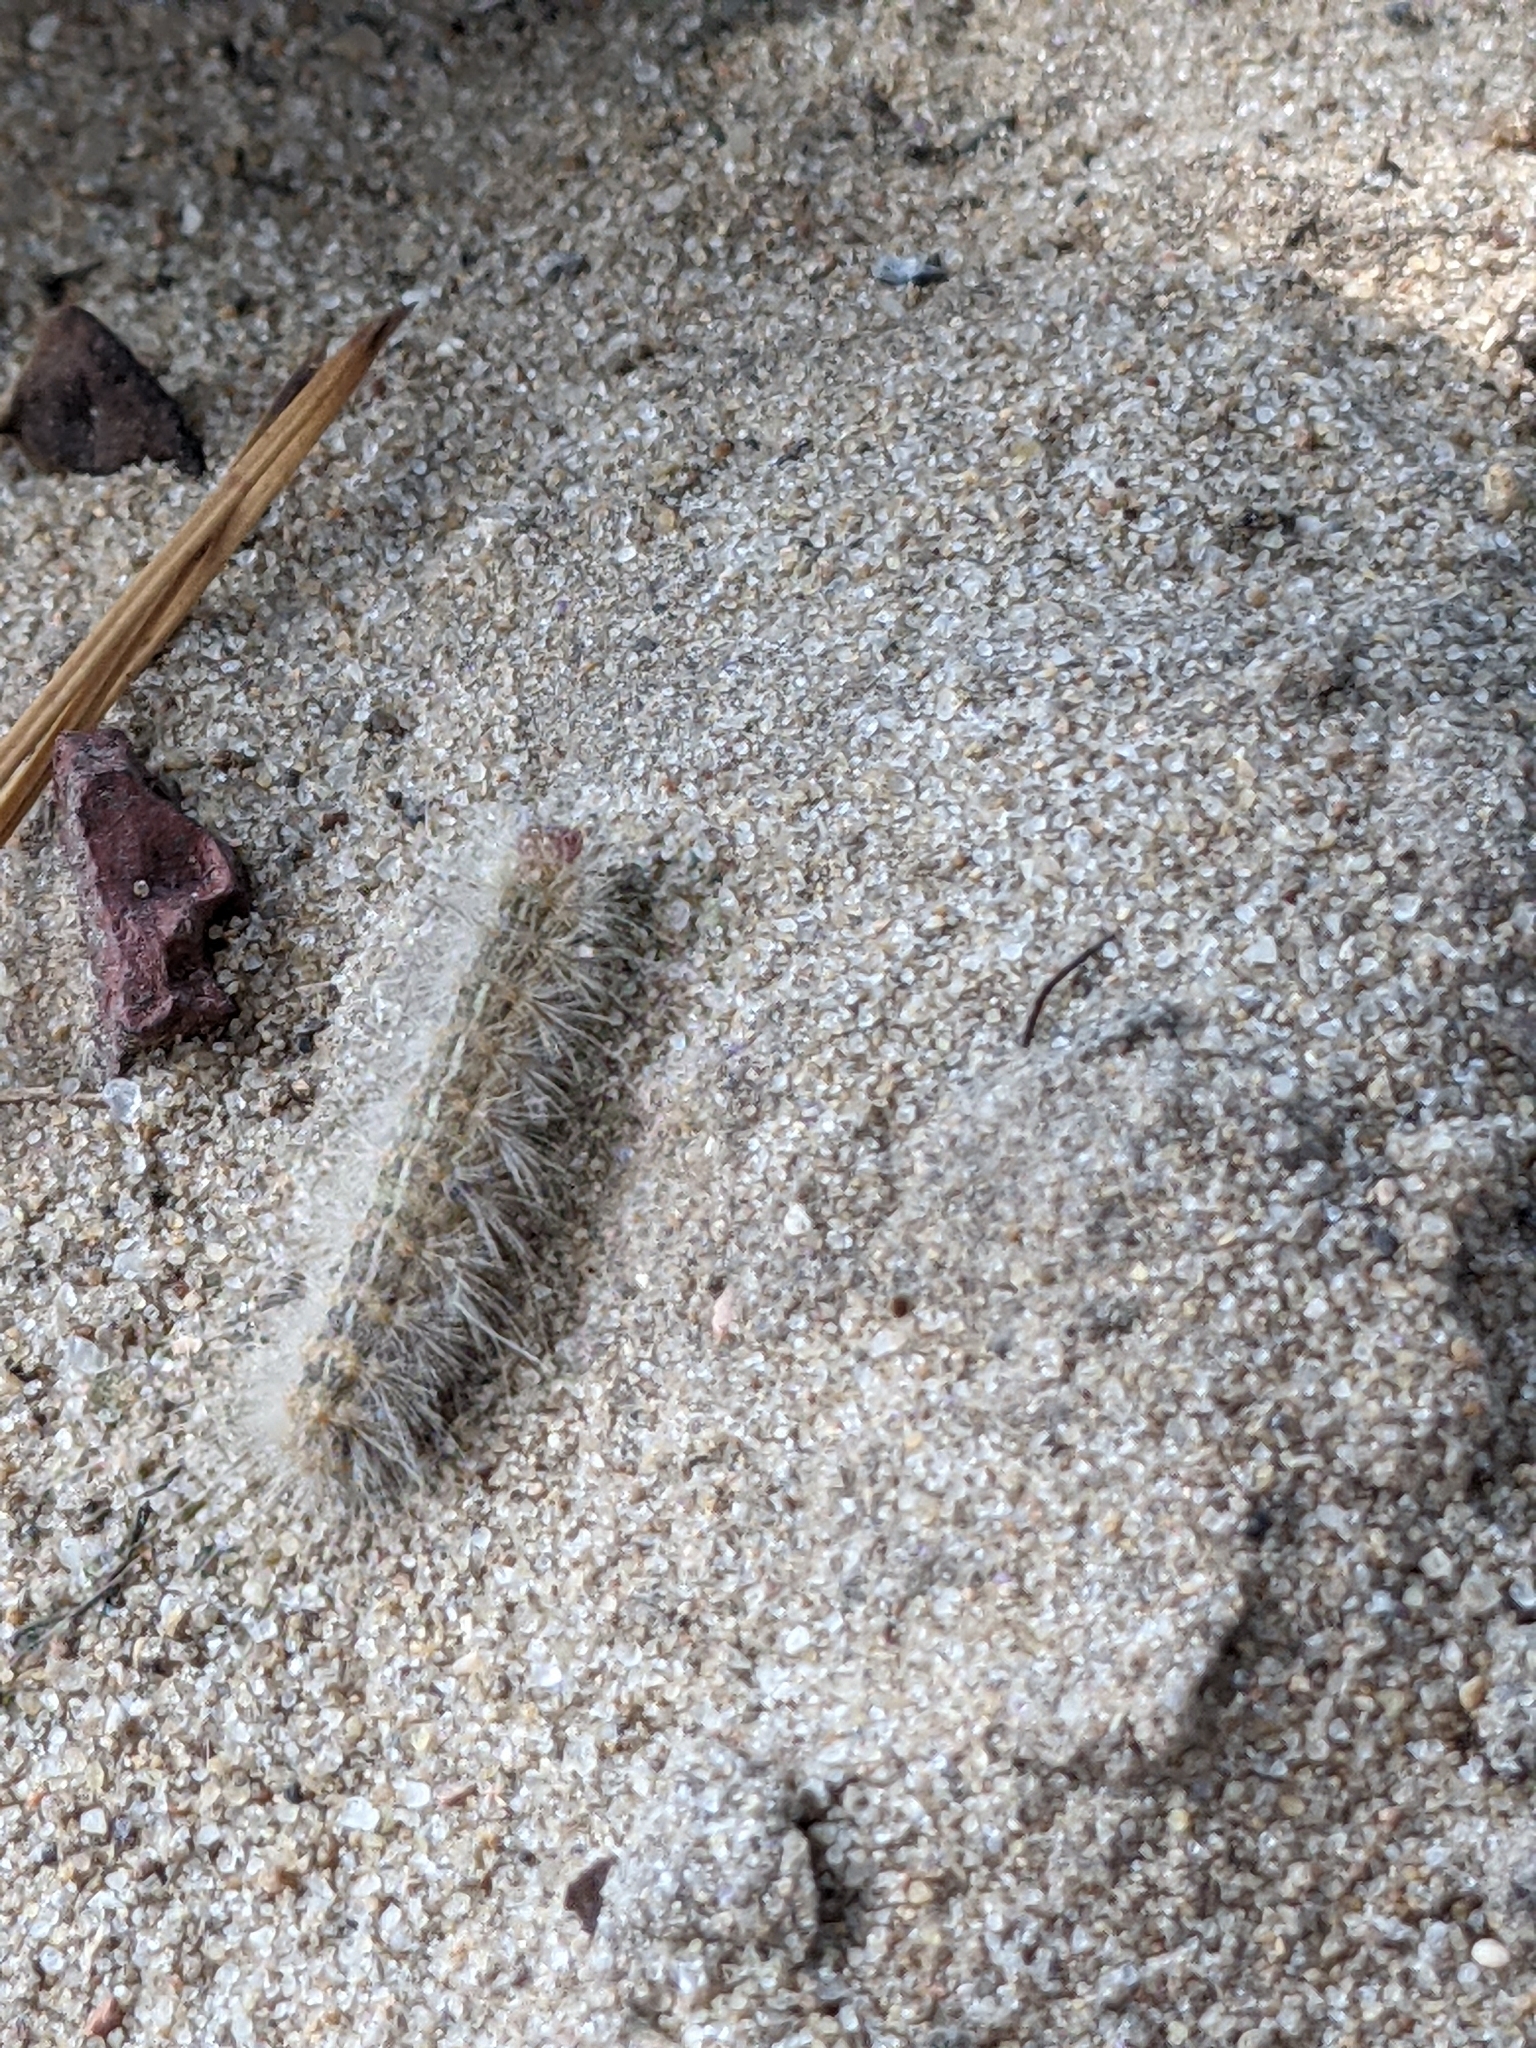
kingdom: Animalia
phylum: Arthropoda
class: Insecta
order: Lepidoptera
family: Erebidae
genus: Hyphantria
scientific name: Hyphantria cunea
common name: American white moth
